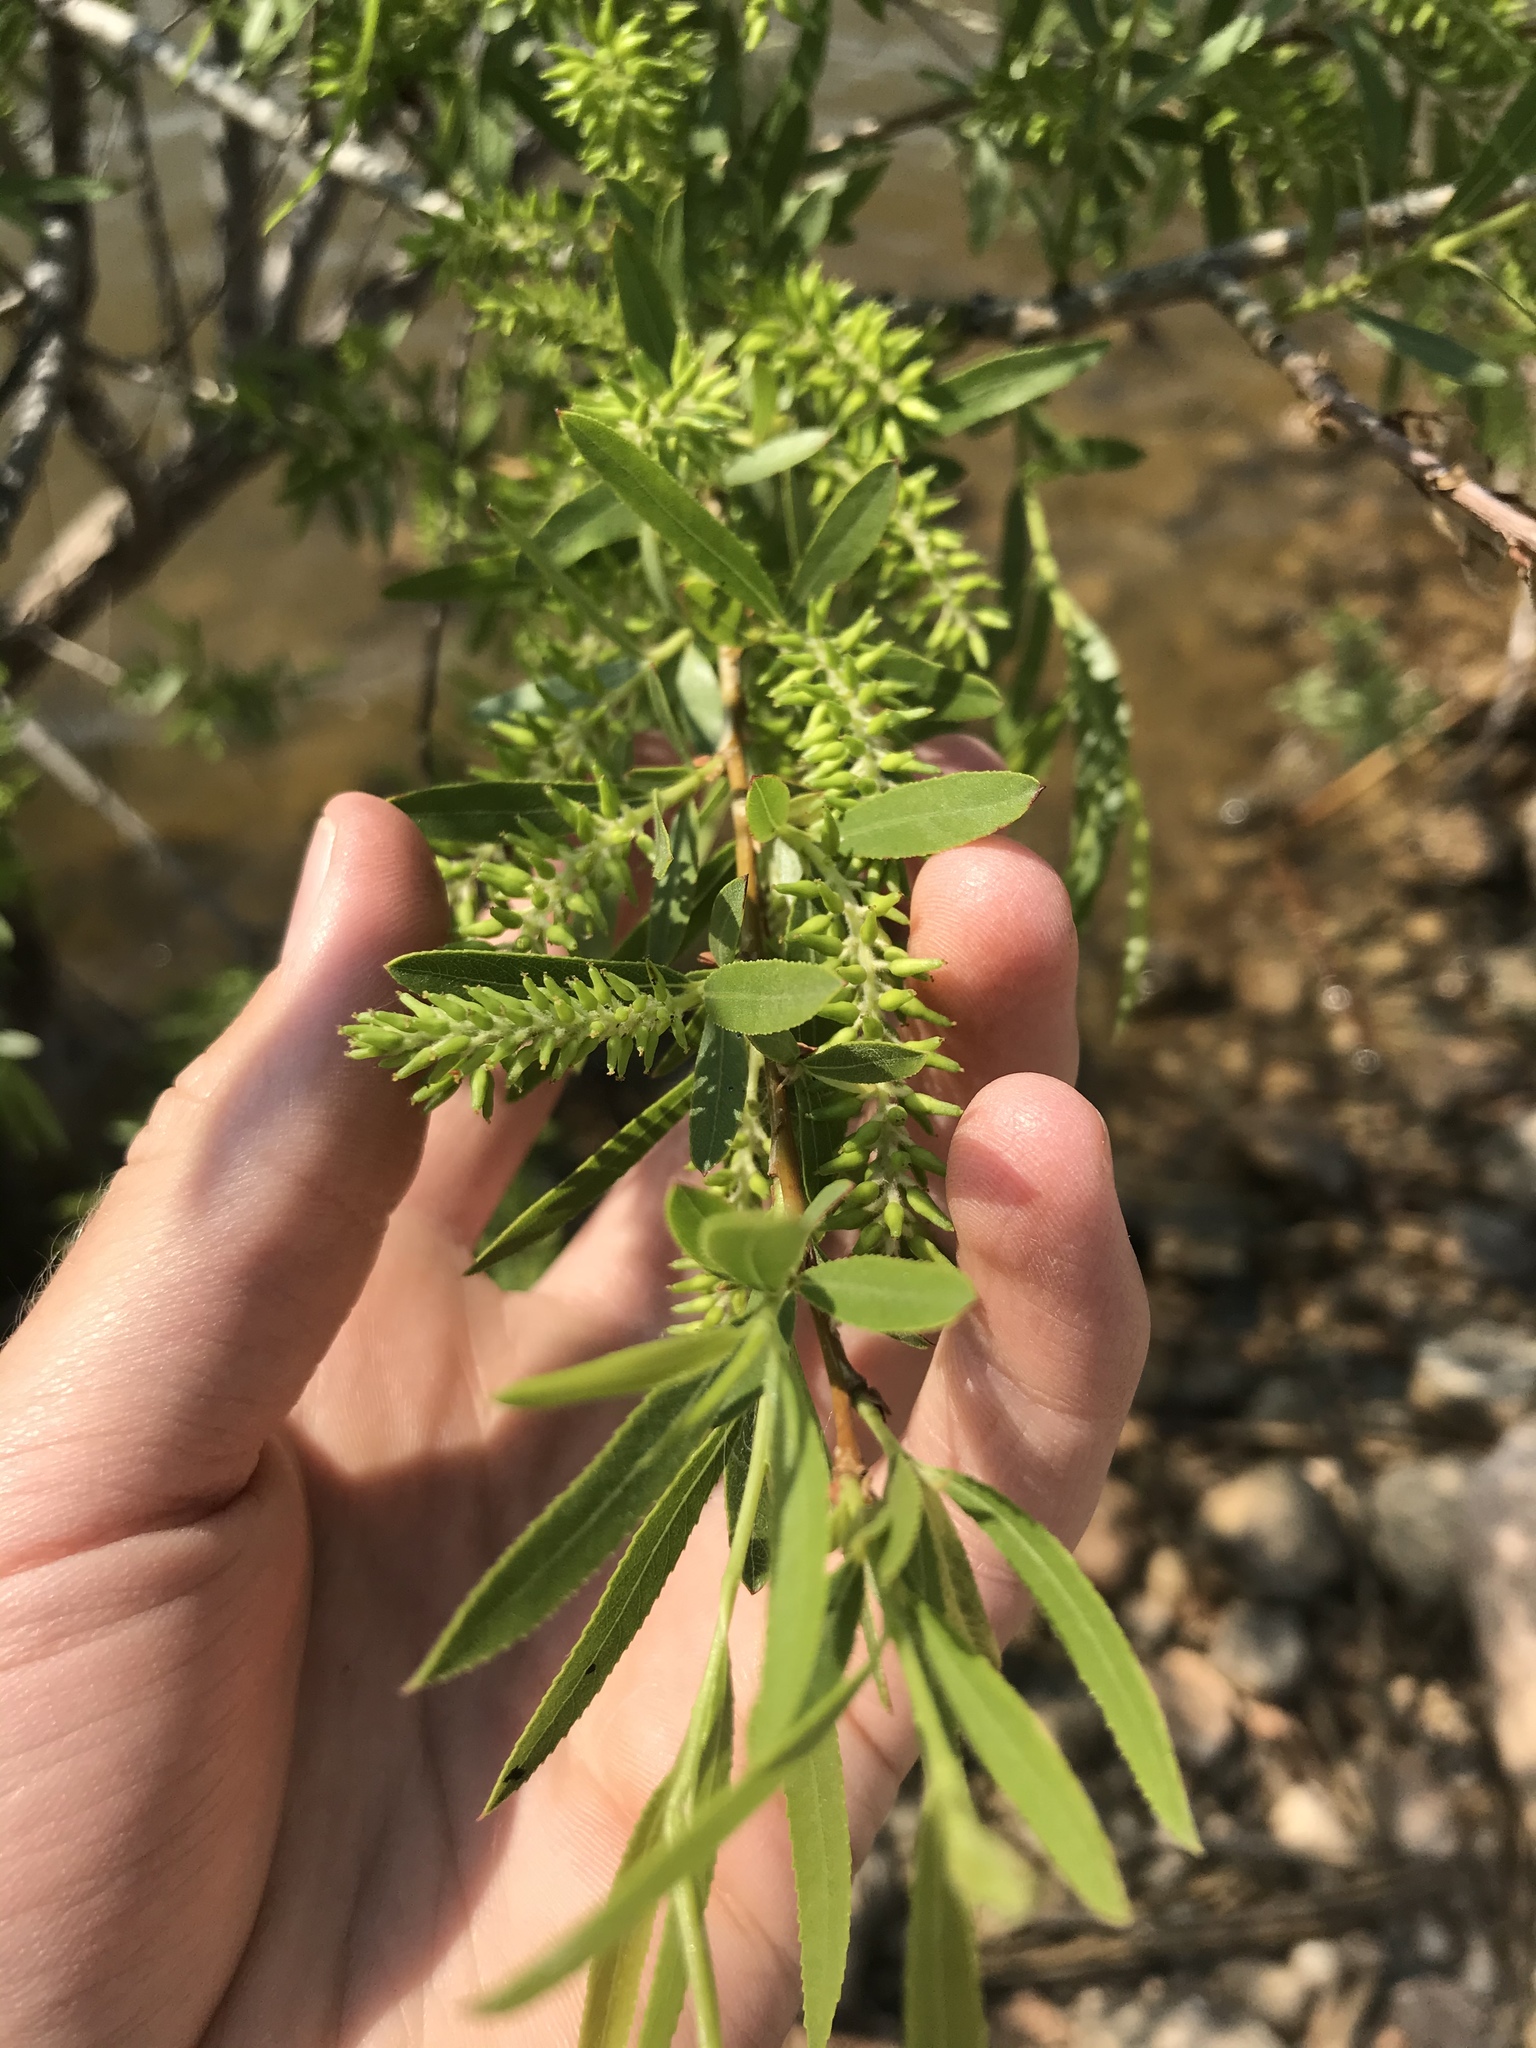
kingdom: Plantae
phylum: Tracheophyta
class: Magnoliopsida
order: Malpighiales
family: Salicaceae
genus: Salix
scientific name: Salix nigra
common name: Black willow
